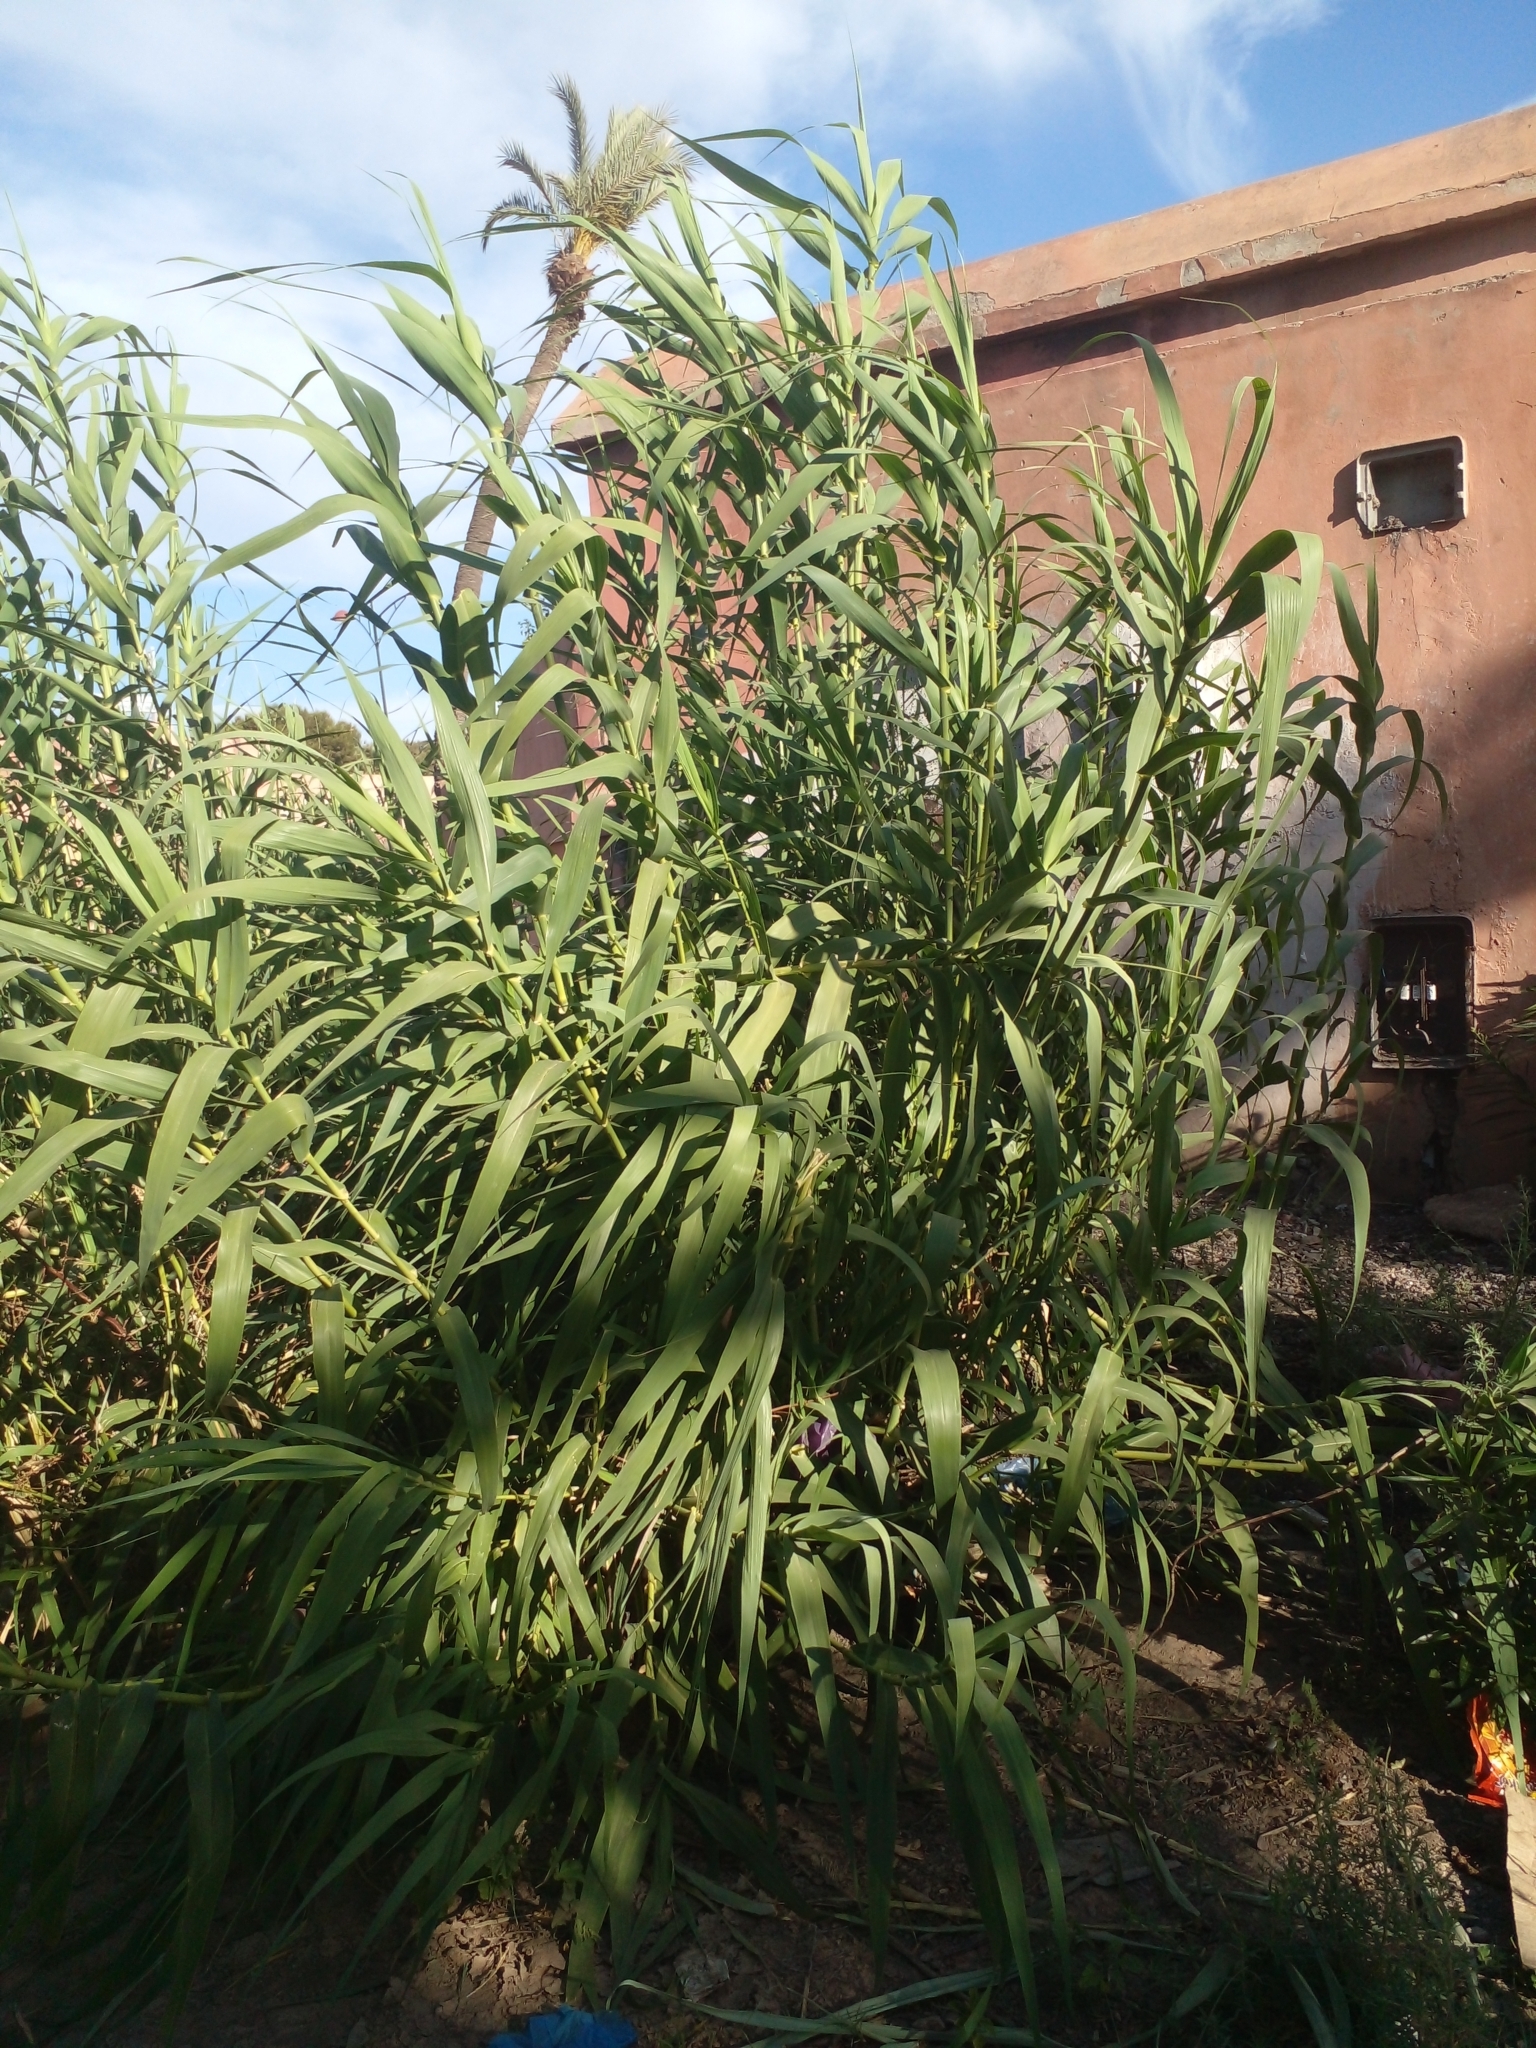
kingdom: Plantae
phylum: Tracheophyta
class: Liliopsida
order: Poales
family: Poaceae
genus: Arundo
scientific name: Arundo donax
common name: Giant reed
